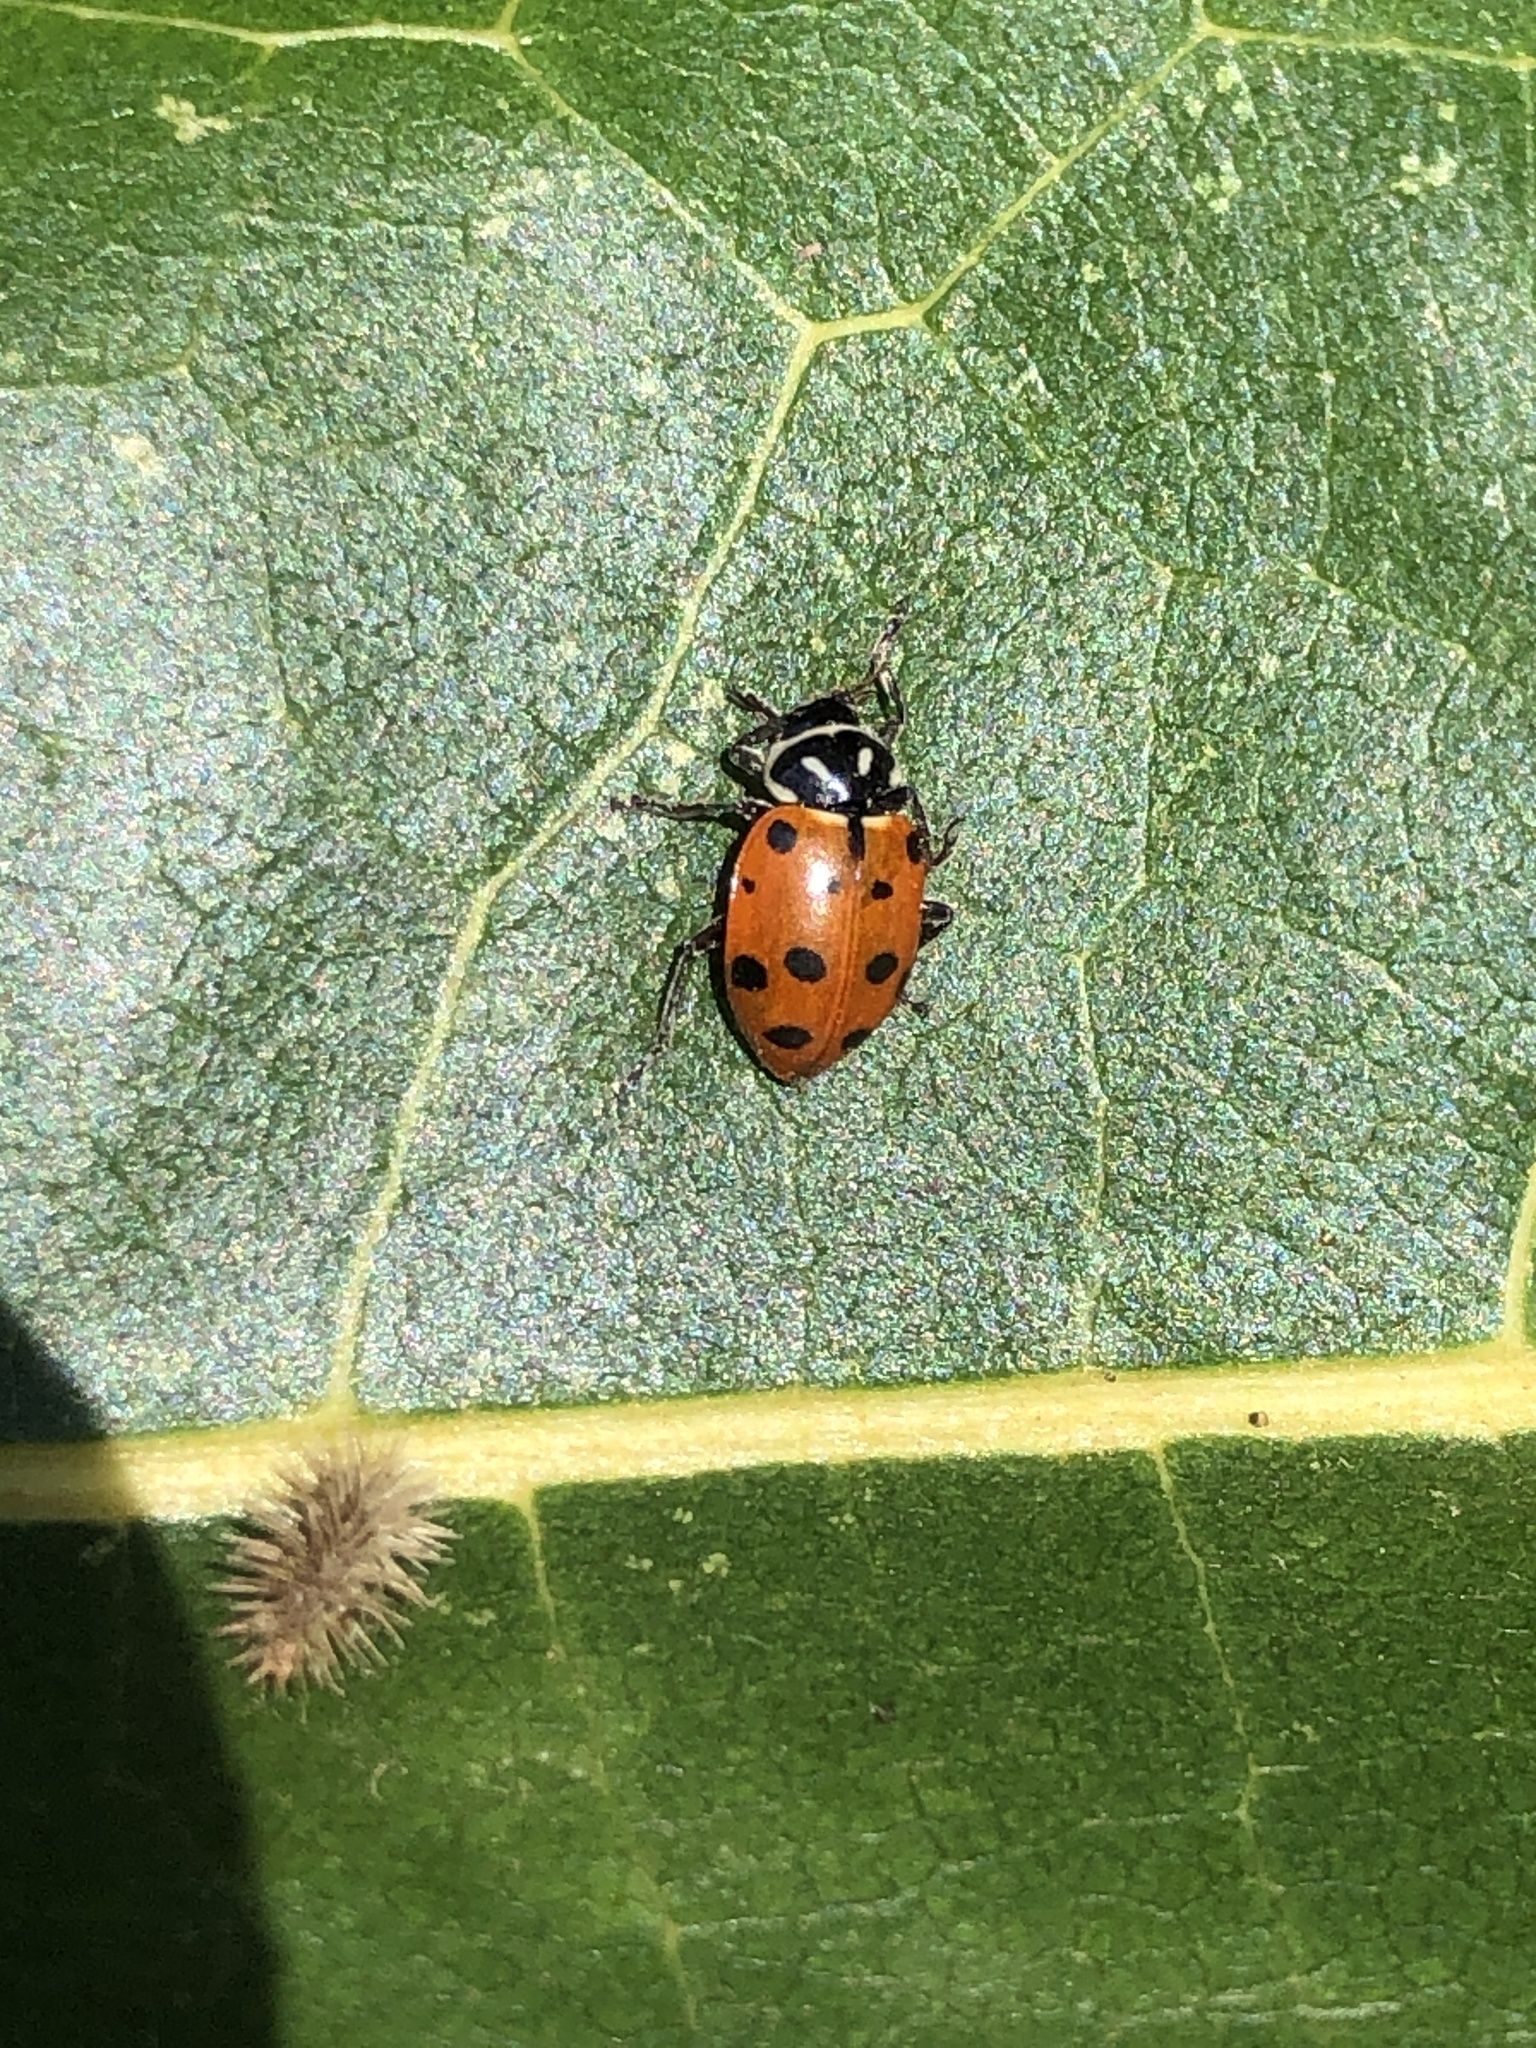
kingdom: Animalia
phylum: Arthropoda
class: Insecta
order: Coleoptera
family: Coccinellidae
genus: Hippodamia
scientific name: Hippodamia convergens
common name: Convergent lady beetle
